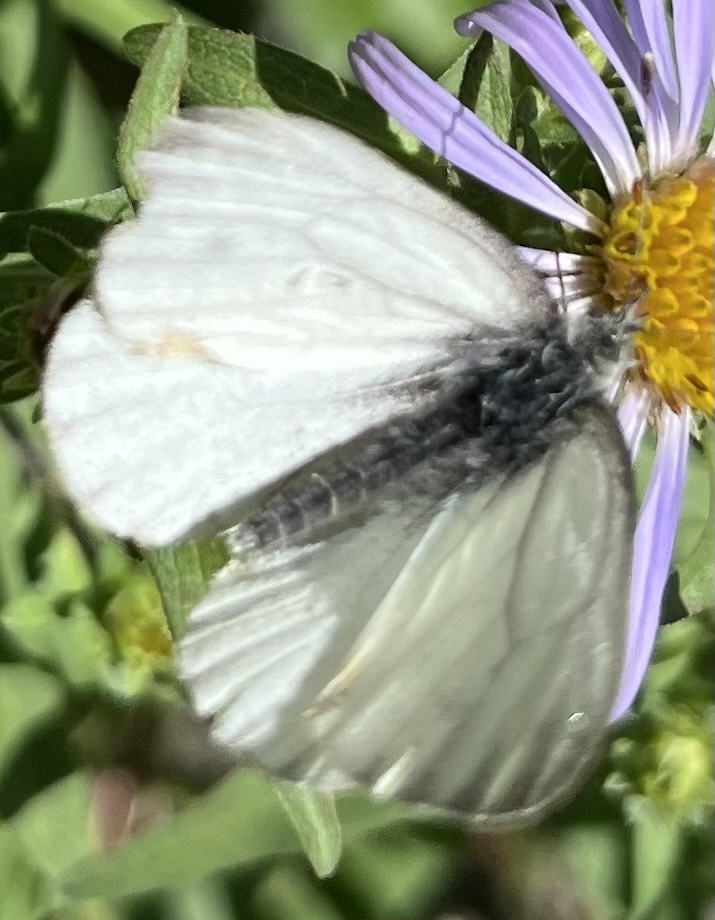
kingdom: Animalia
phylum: Arthropoda
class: Insecta
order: Lepidoptera
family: Pieridae
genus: Pieris
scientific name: Pieris marginalis
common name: Margined white
